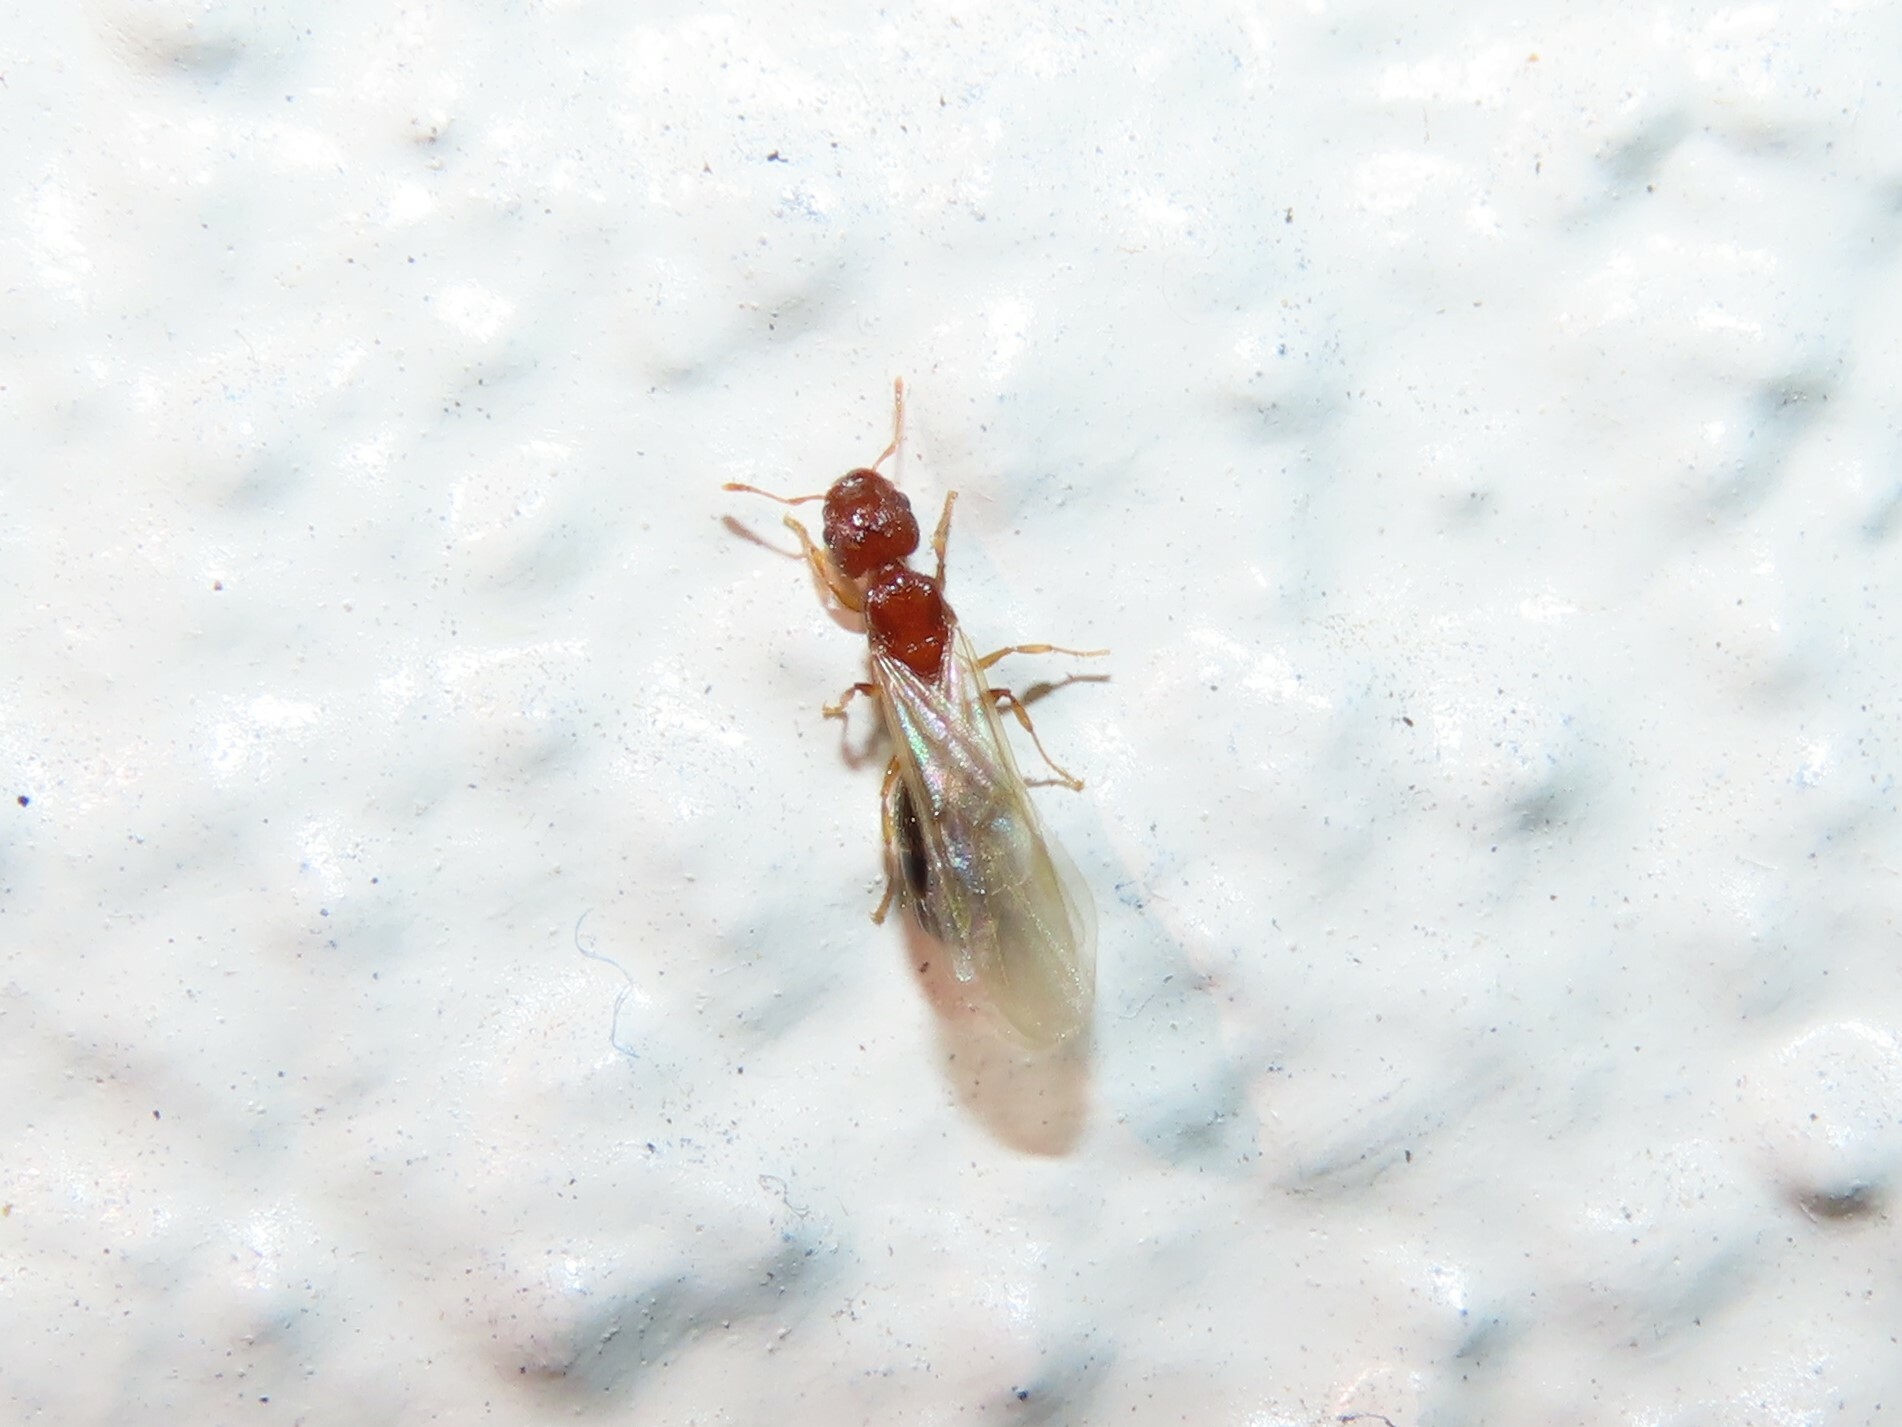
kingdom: Animalia
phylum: Arthropoda
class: Insecta
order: Hymenoptera
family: Formicidae
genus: Pheidole
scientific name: Pheidole parva
